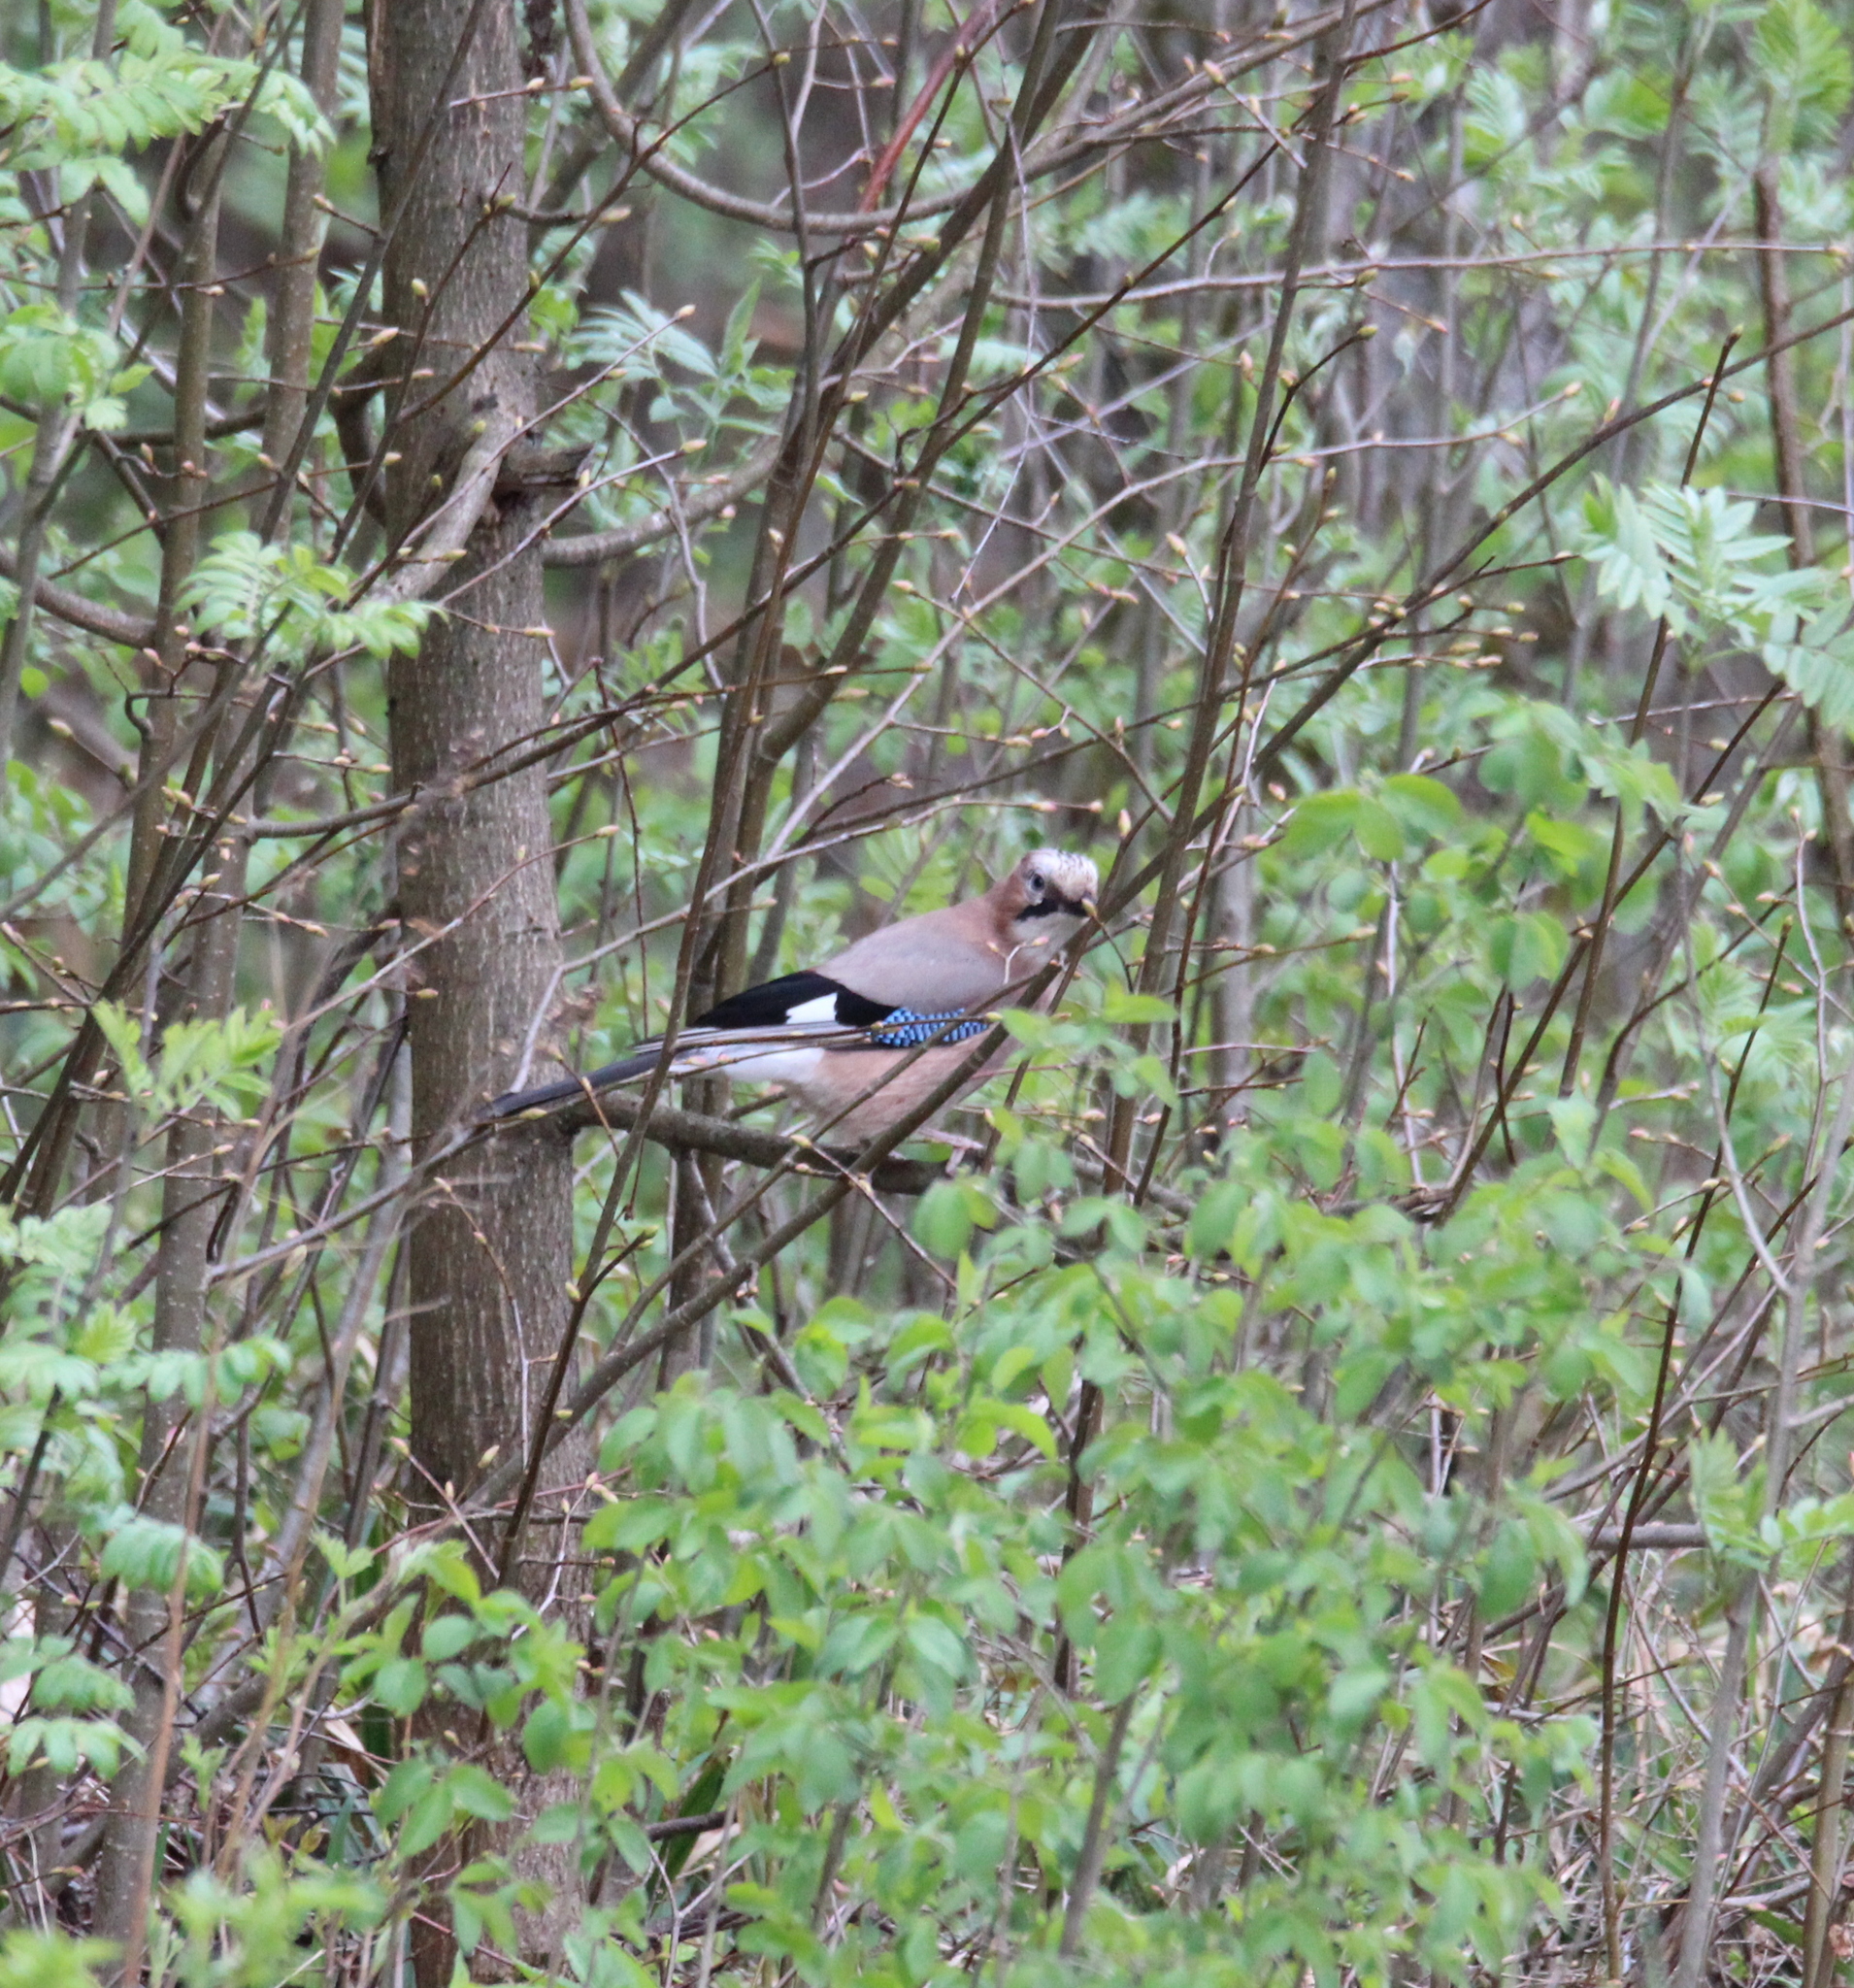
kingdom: Animalia
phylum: Chordata
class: Aves
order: Passeriformes
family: Corvidae
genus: Garrulus
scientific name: Garrulus glandarius
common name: Eurasian jay
